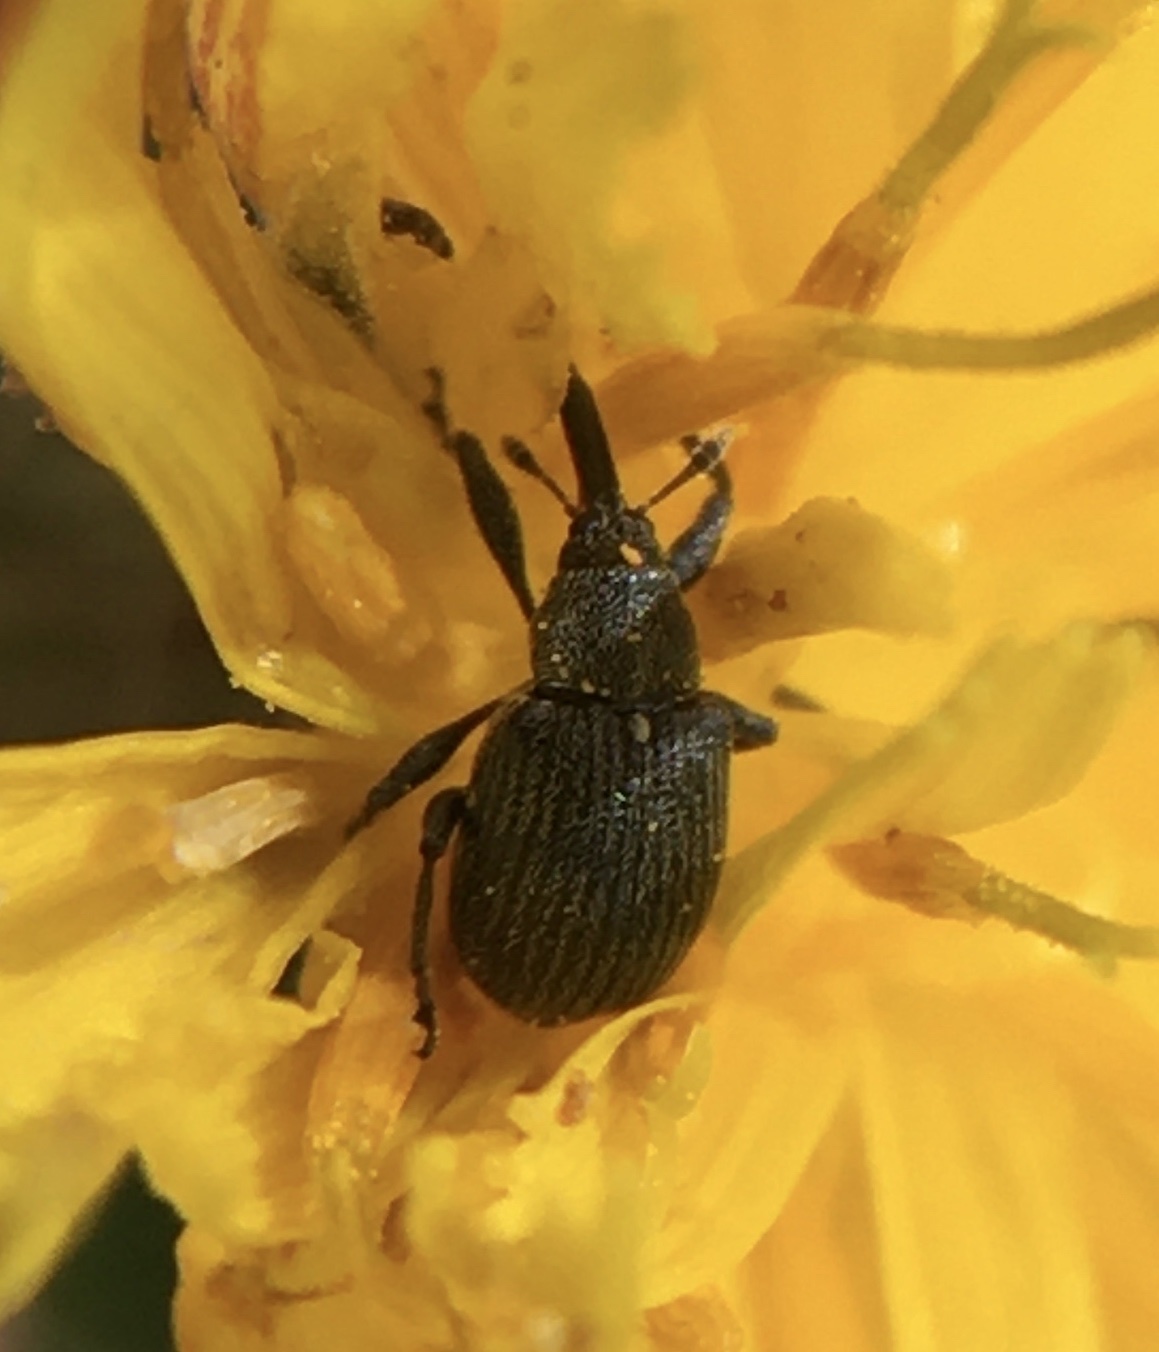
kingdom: Animalia
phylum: Arthropoda
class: Insecta
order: Coleoptera
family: Curculionidae
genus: Anthonomus
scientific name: Anthonomus rubi
